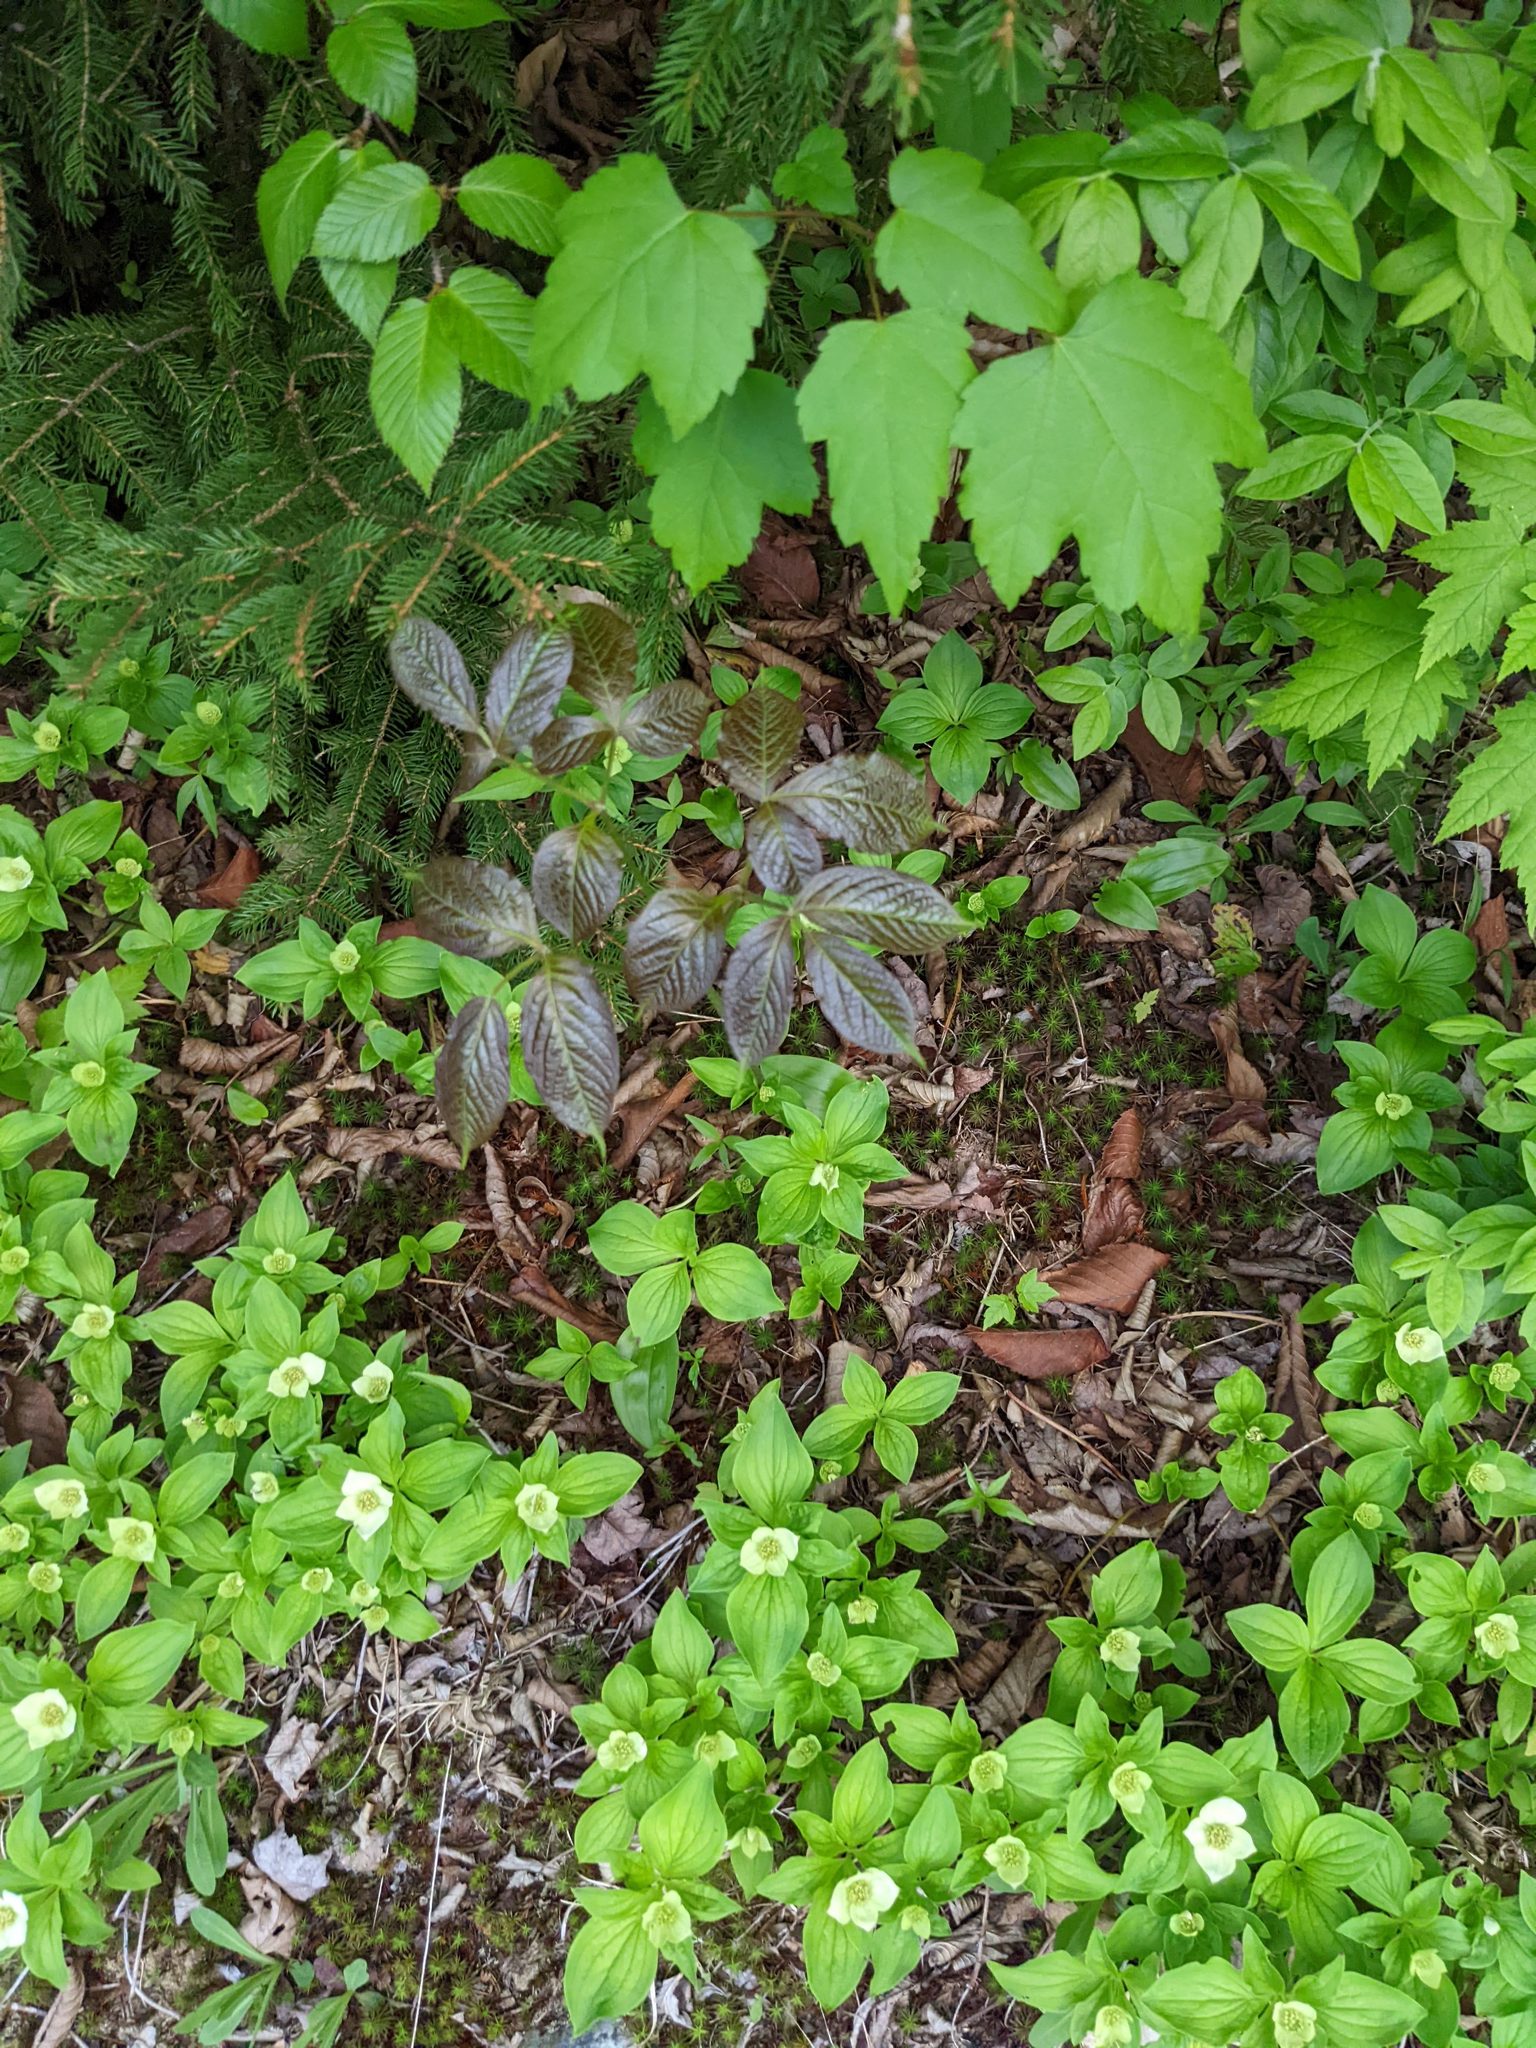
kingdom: Plantae
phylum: Tracheophyta
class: Magnoliopsida
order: Apiales
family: Araliaceae
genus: Aralia
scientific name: Aralia nudicaulis
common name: Wild sarsaparilla
